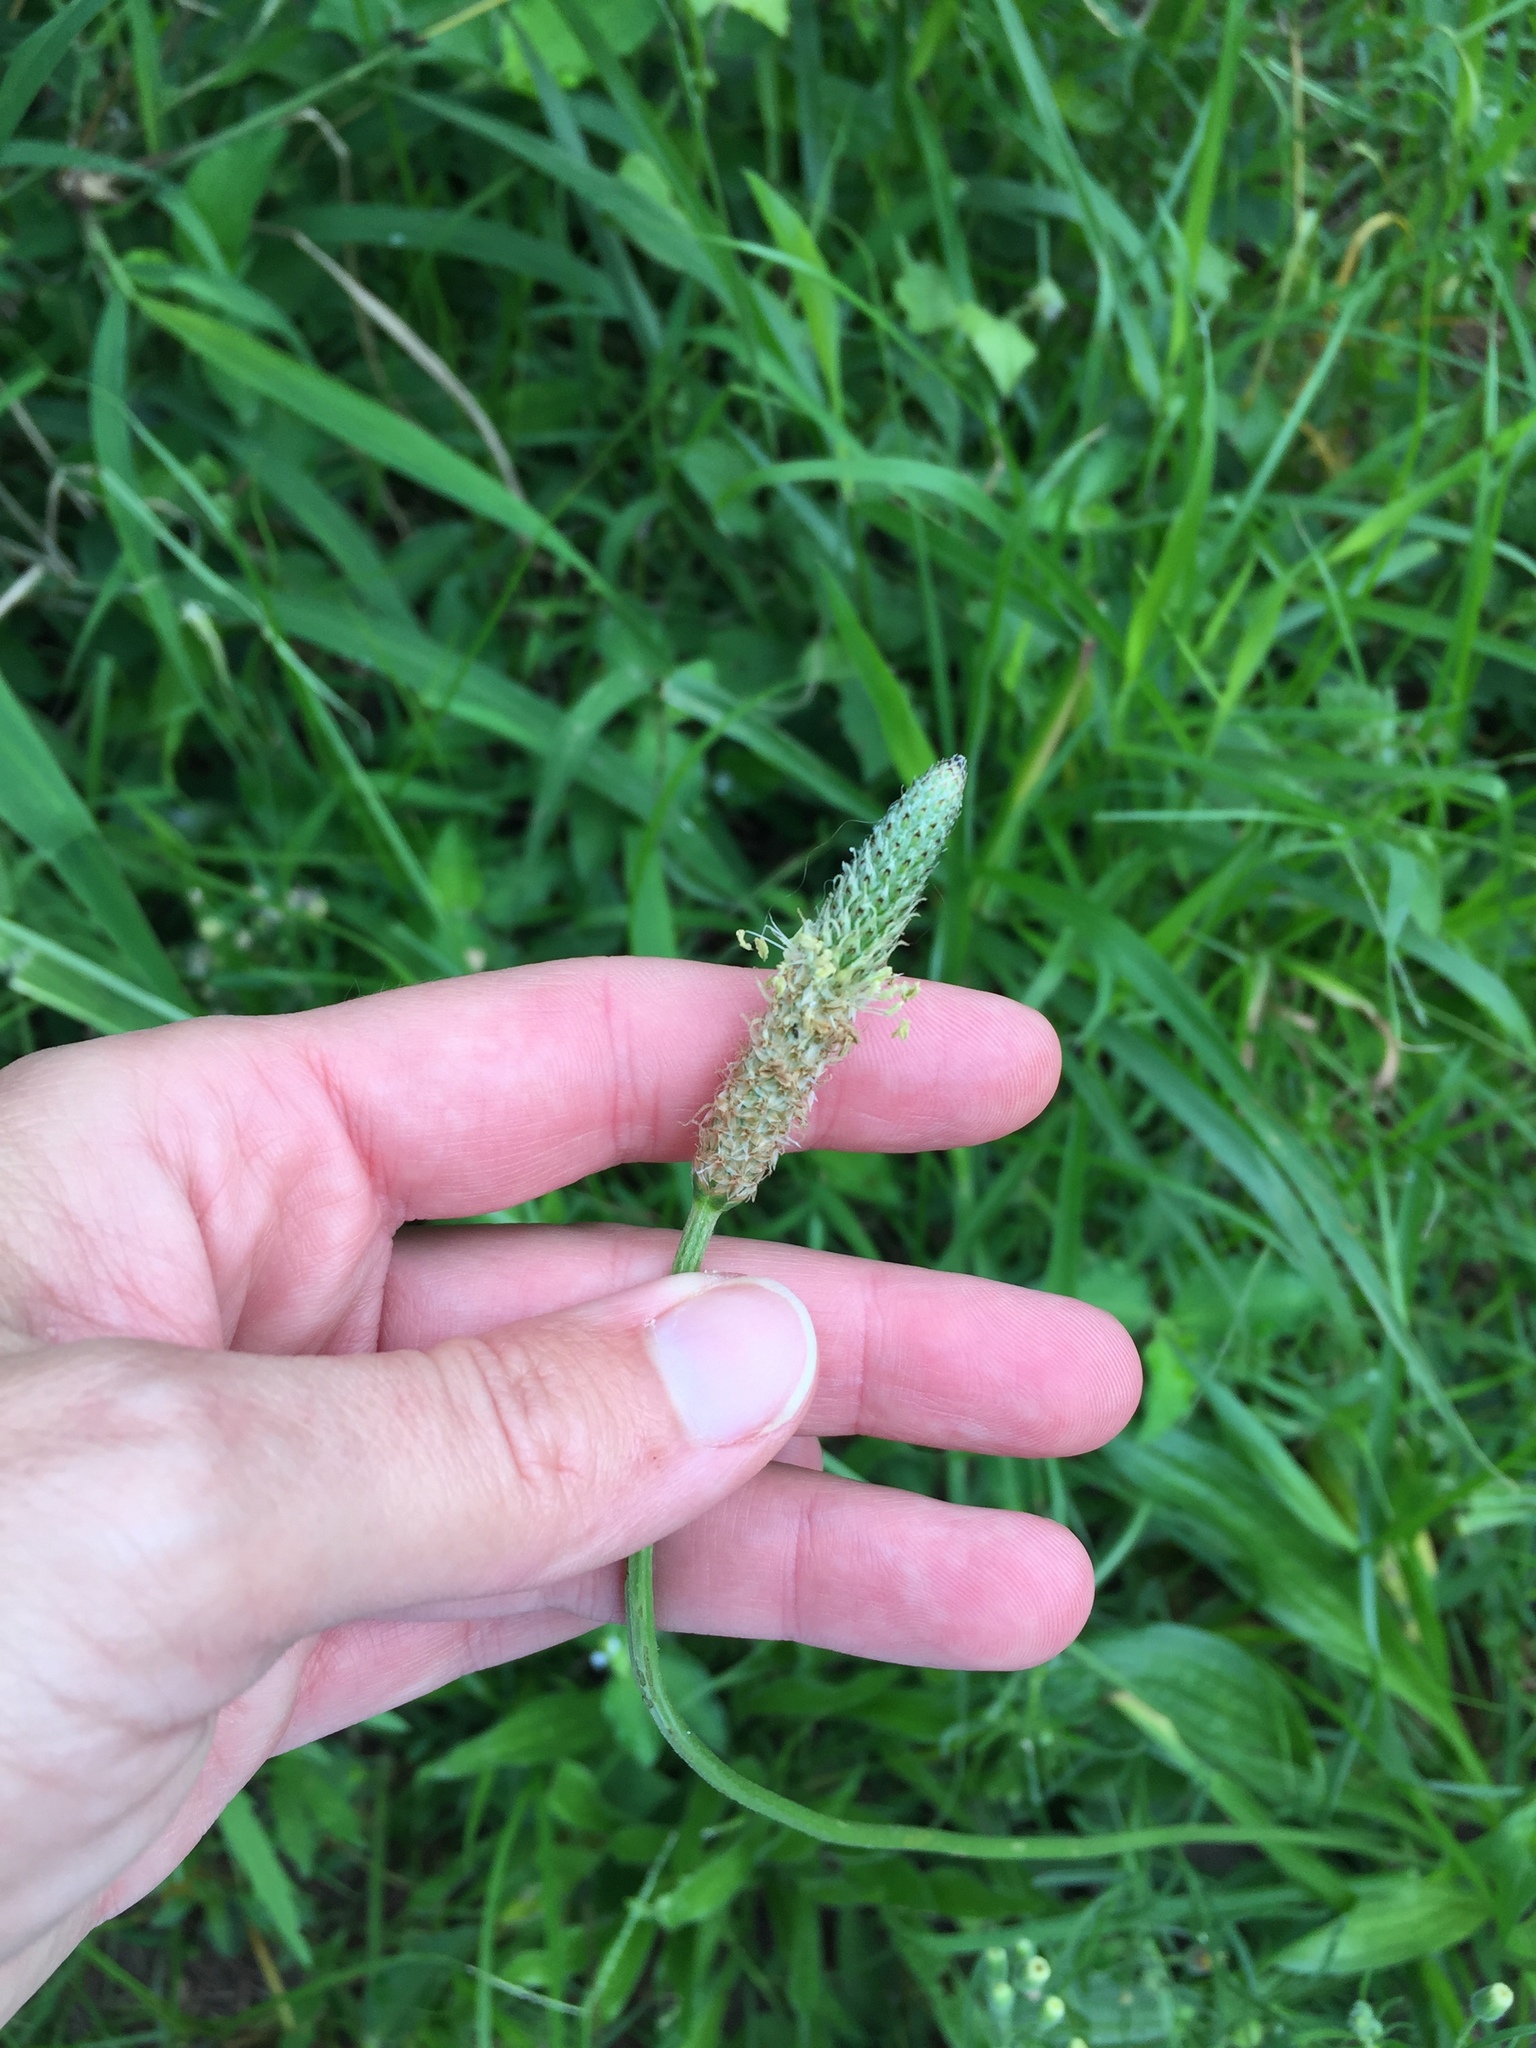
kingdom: Plantae
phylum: Tracheophyta
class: Magnoliopsida
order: Lamiales
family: Plantaginaceae
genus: Plantago
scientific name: Plantago lanceolata
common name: Ribwort plantain
